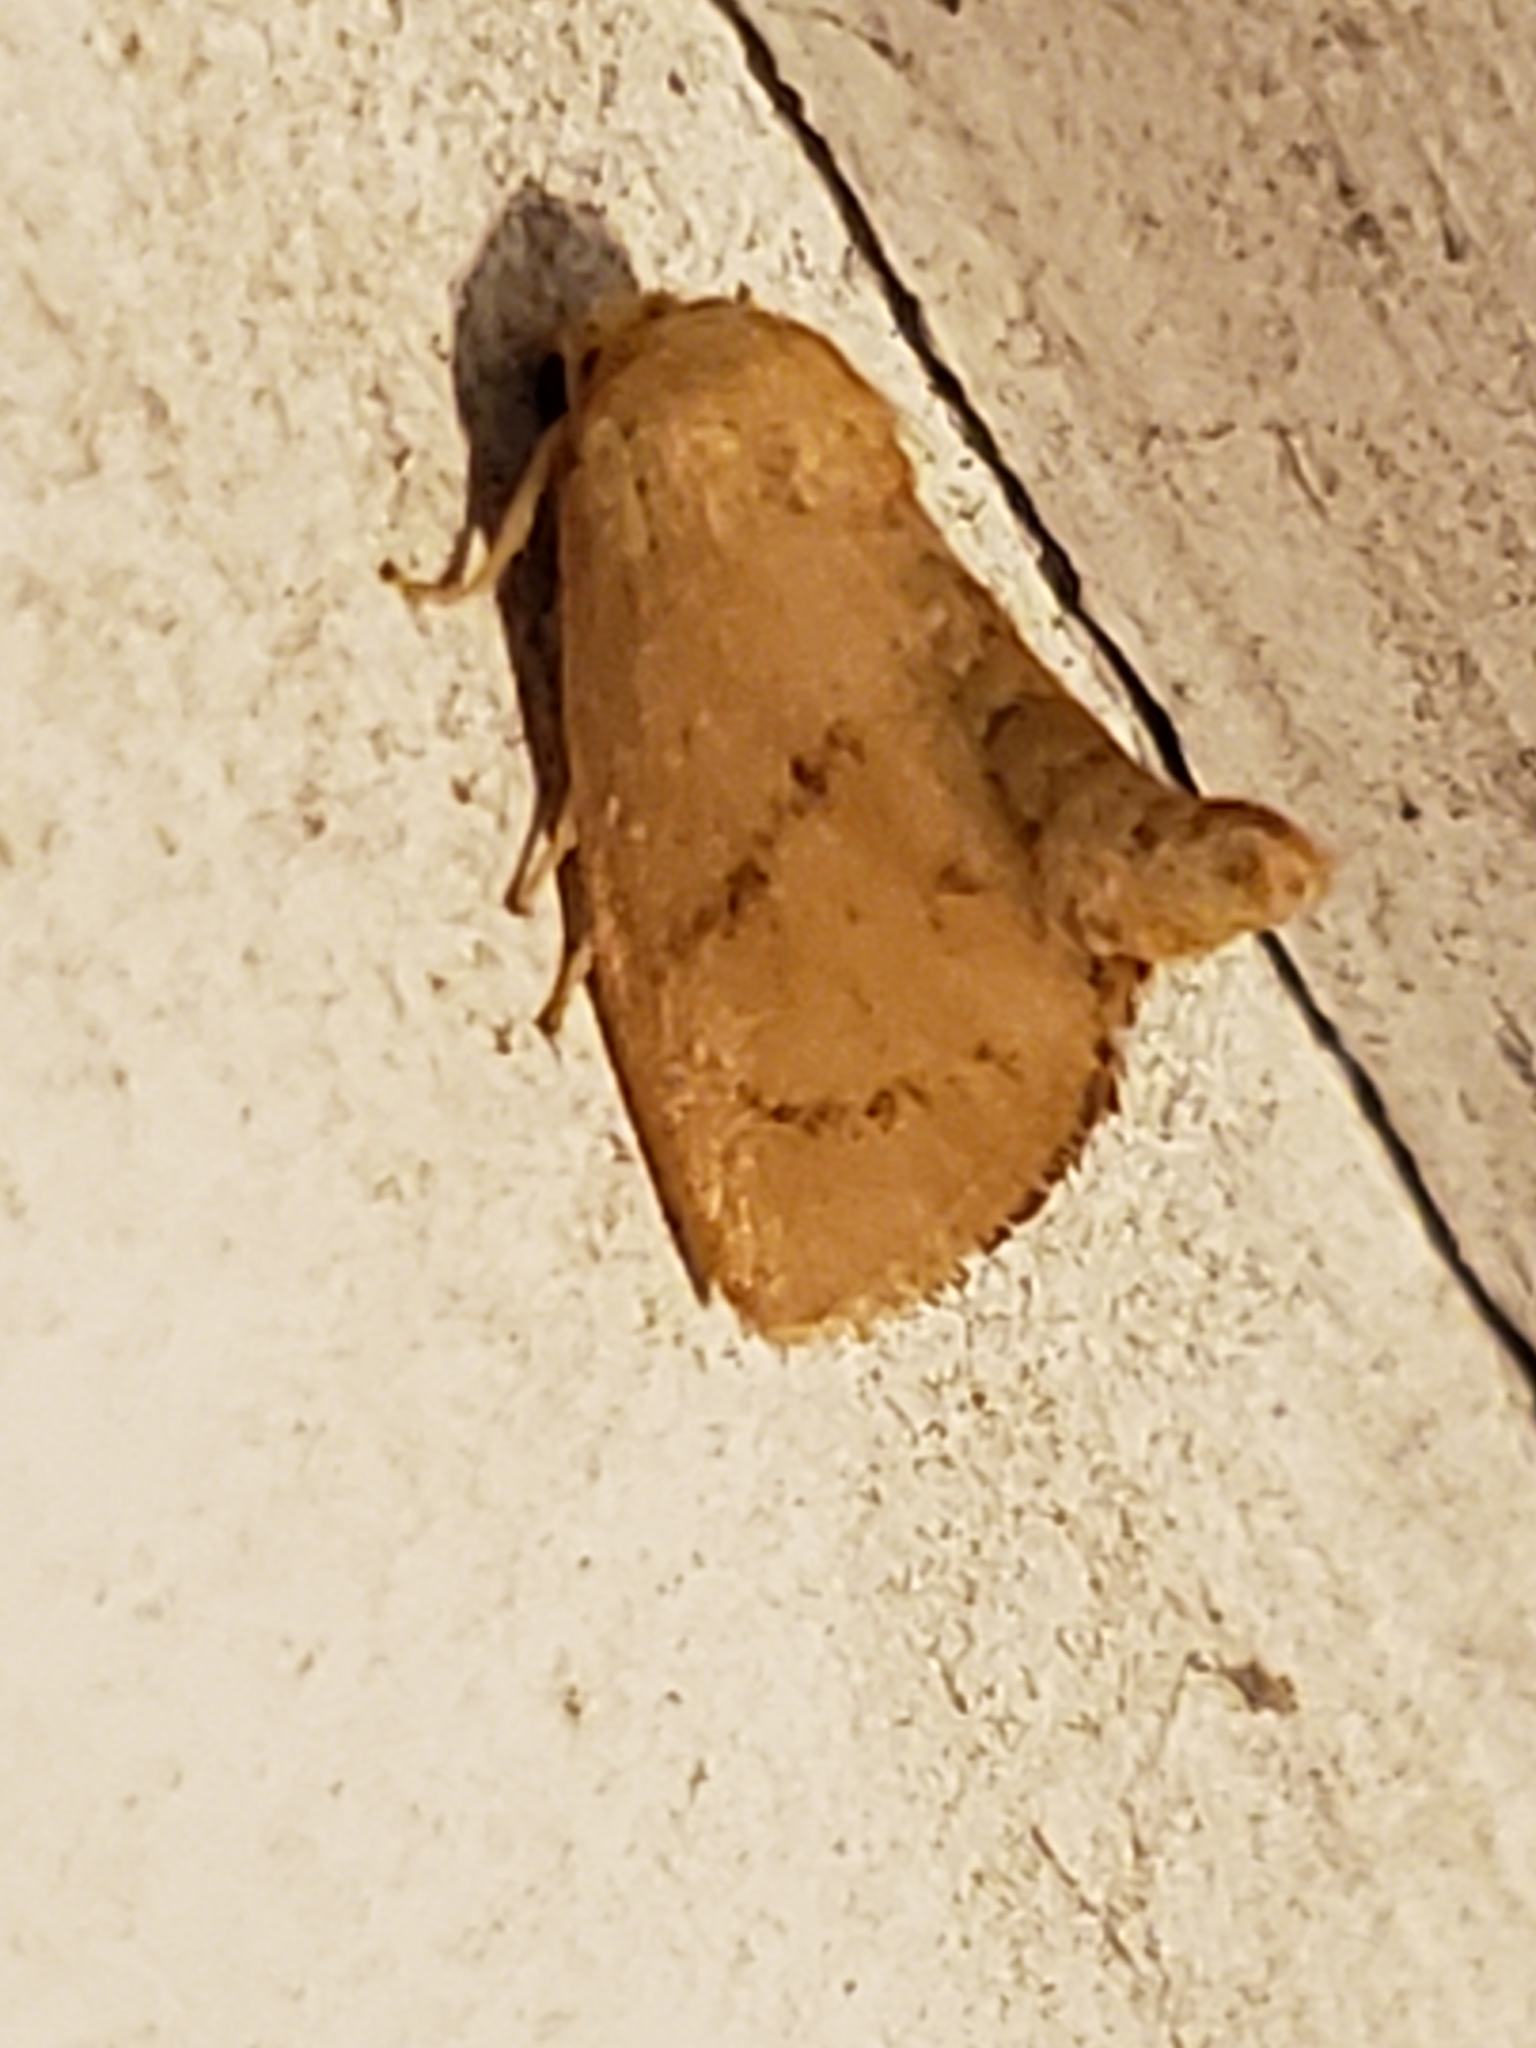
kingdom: Animalia
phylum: Arthropoda
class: Insecta
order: Lepidoptera
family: Limacodidae
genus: Tortricidia
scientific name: Tortricidia flexuosa
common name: Abbreviated button slug moth
